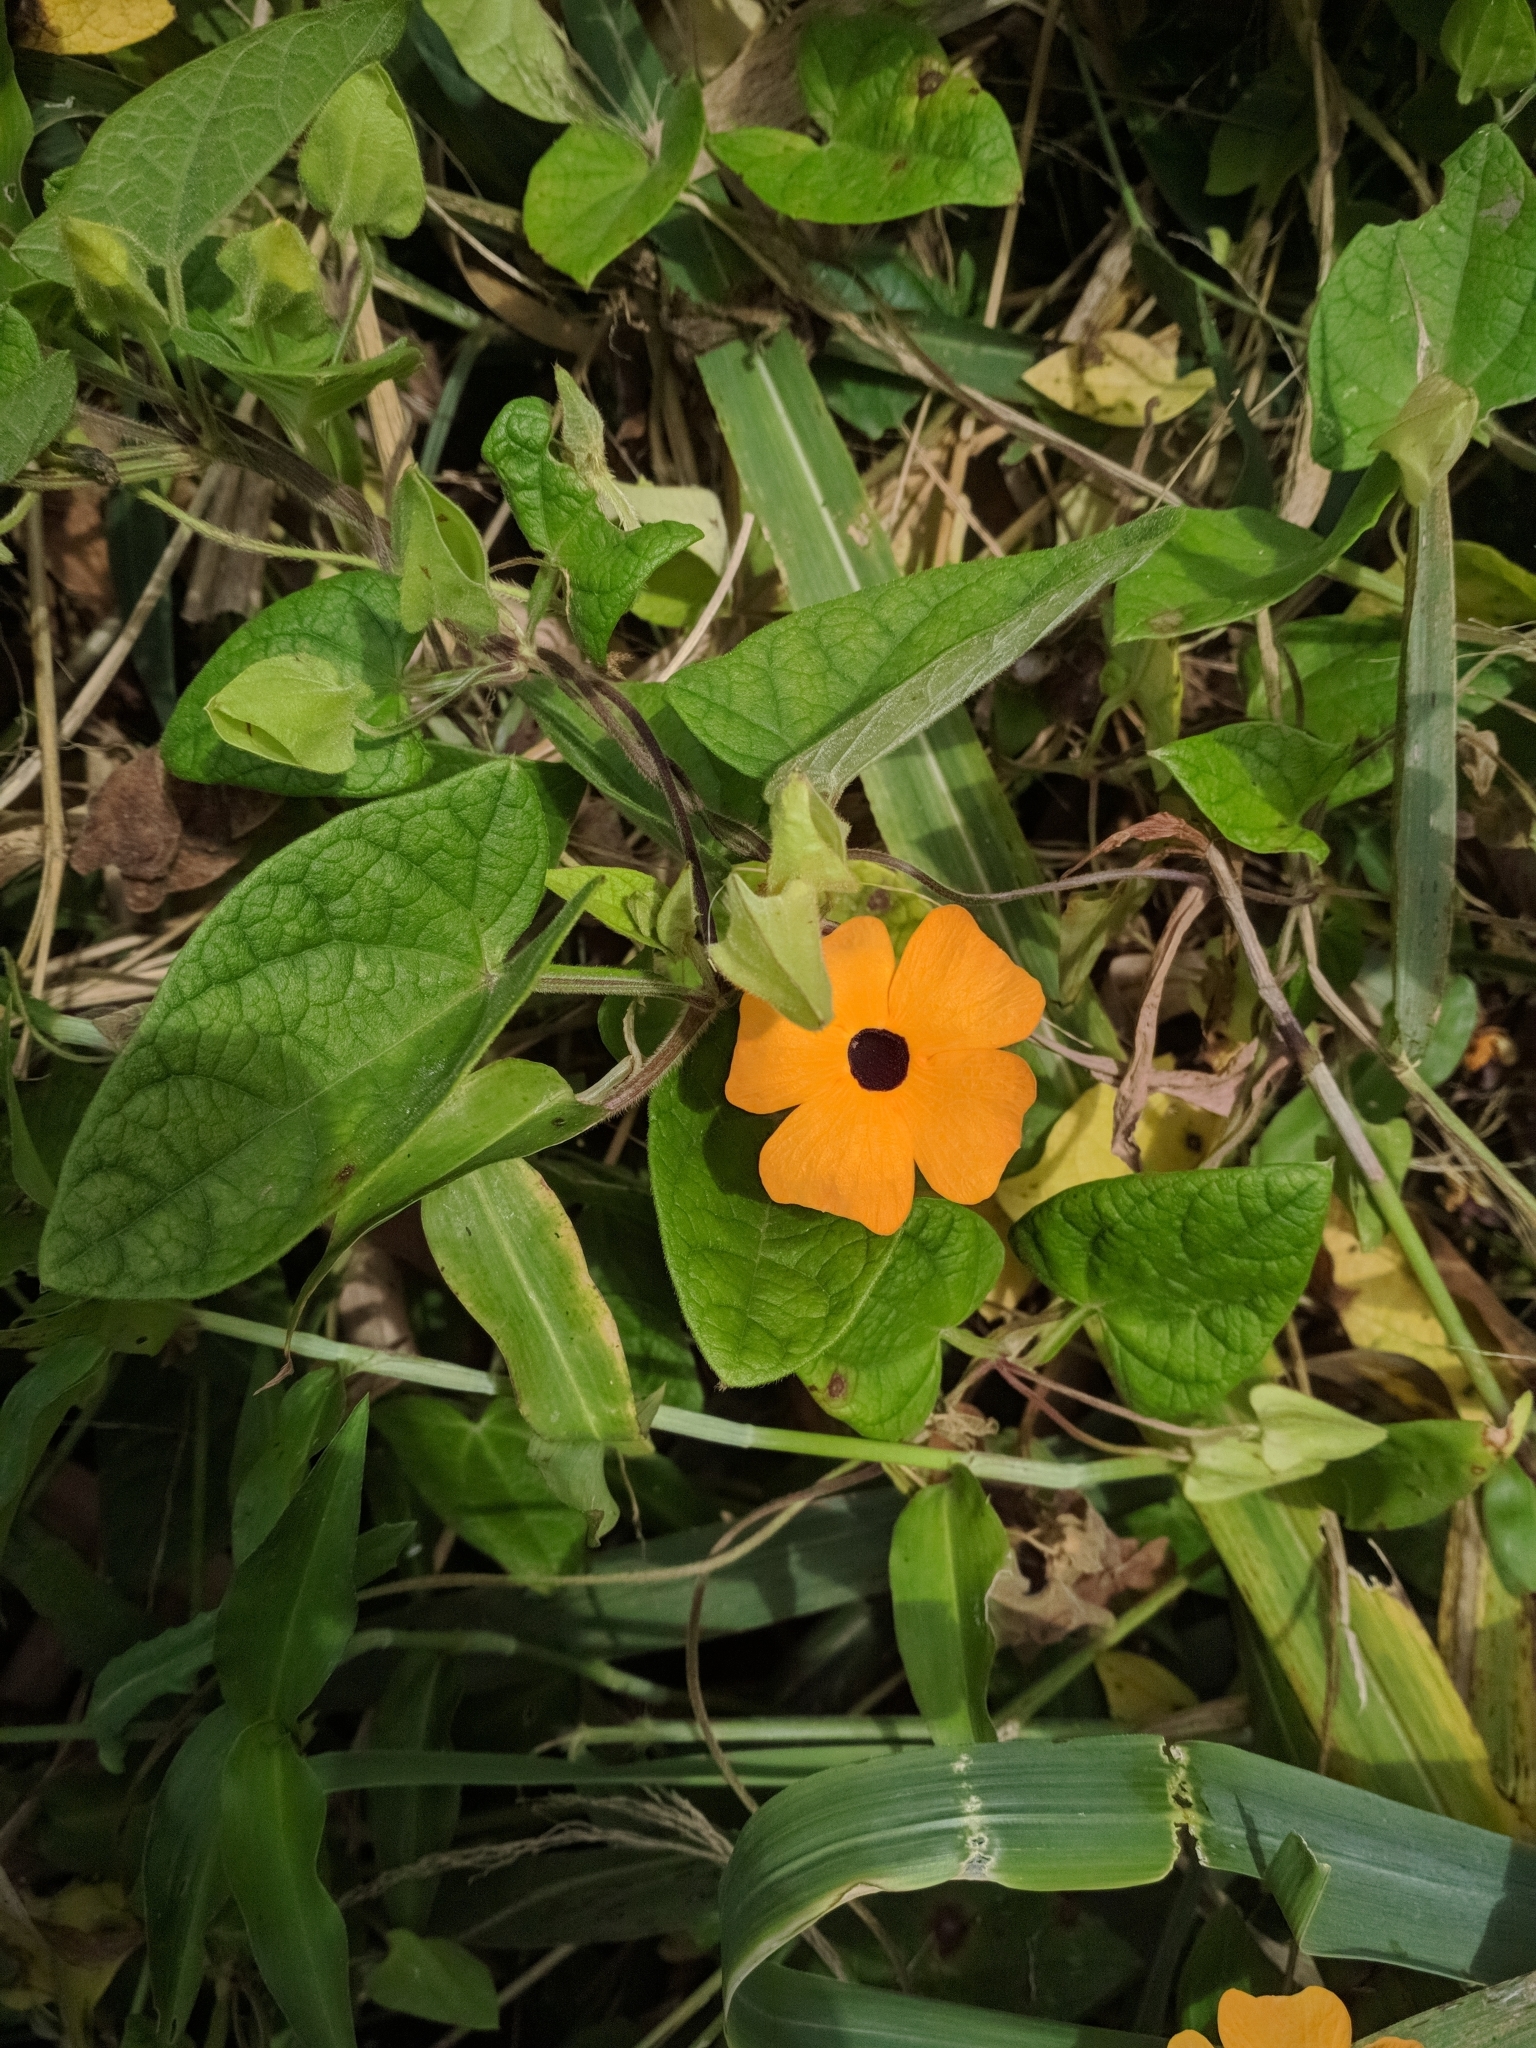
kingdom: Plantae
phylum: Tracheophyta
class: Magnoliopsida
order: Lamiales
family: Acanthaceae
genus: Thunbergia
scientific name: Thunbergia alata
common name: Blackeyed susan vine
